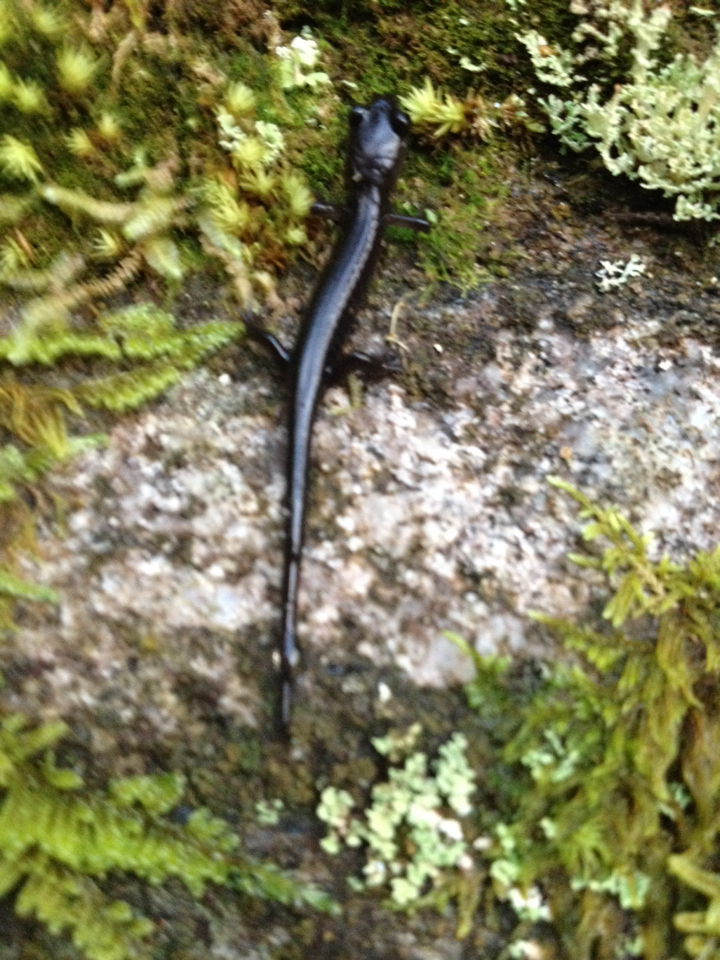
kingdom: Animalia
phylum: Chordata
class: Amphibia
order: Caudata
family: Plethodontidae
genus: Plethodon
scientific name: Plethodon metcalfi
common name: Southern gray-cheeked salamander
